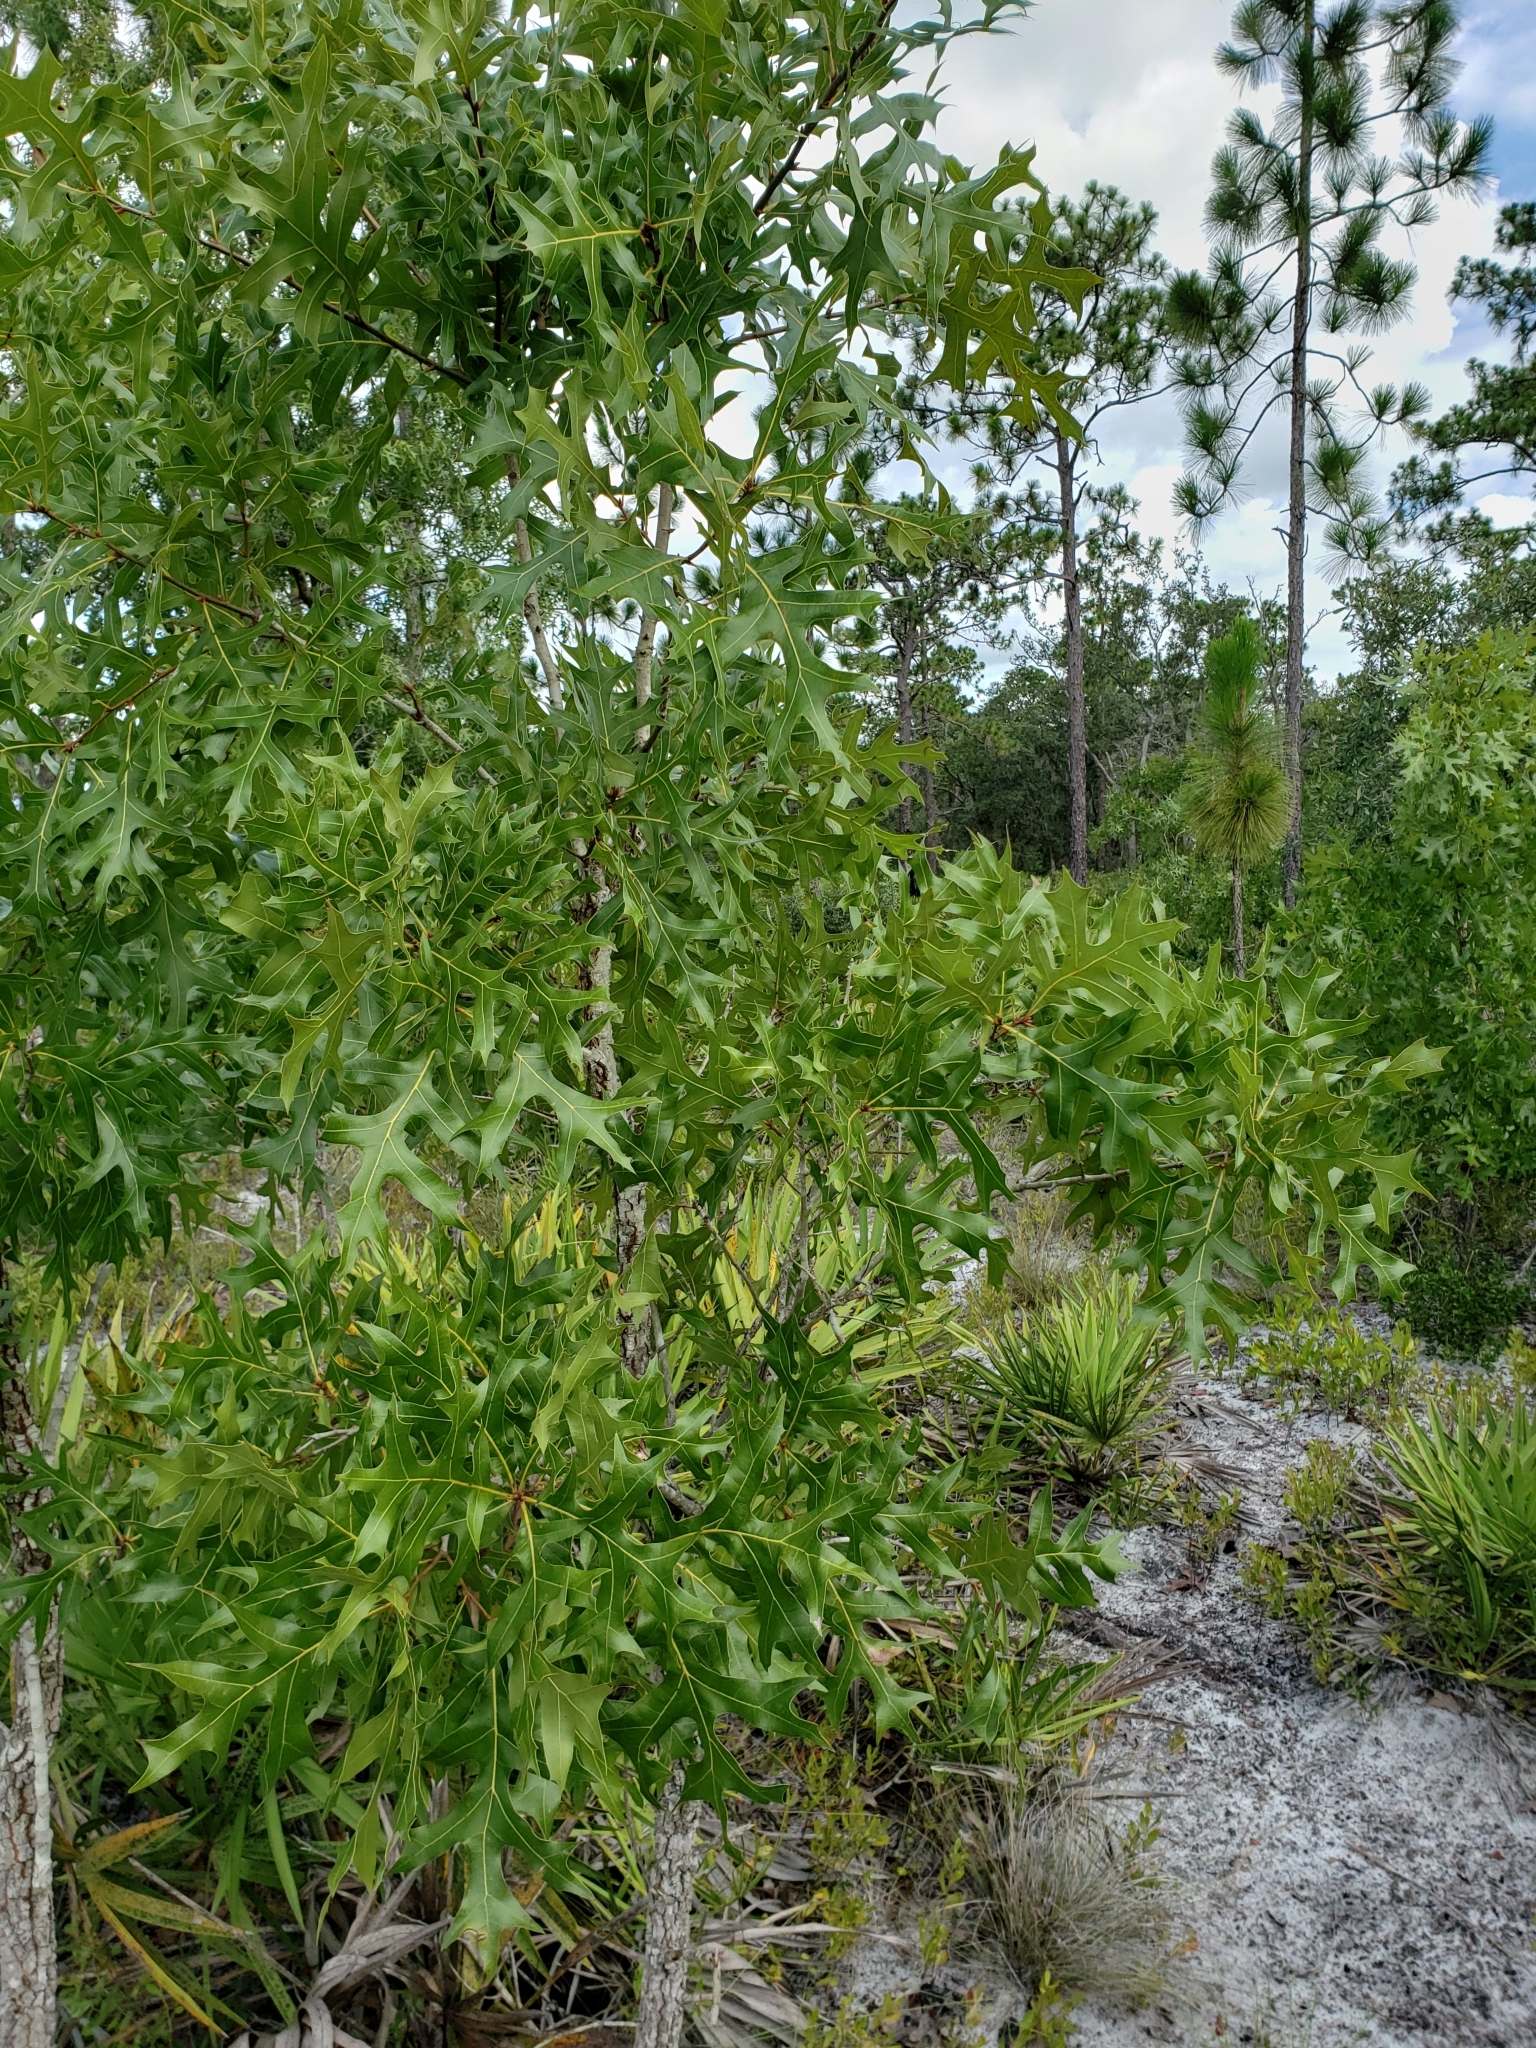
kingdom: Plantae
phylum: Tracheophyta
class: Magnoliopsida
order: Fagales
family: Fagaceae
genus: Quercus
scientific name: Quercus laevis
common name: Turkey oak
